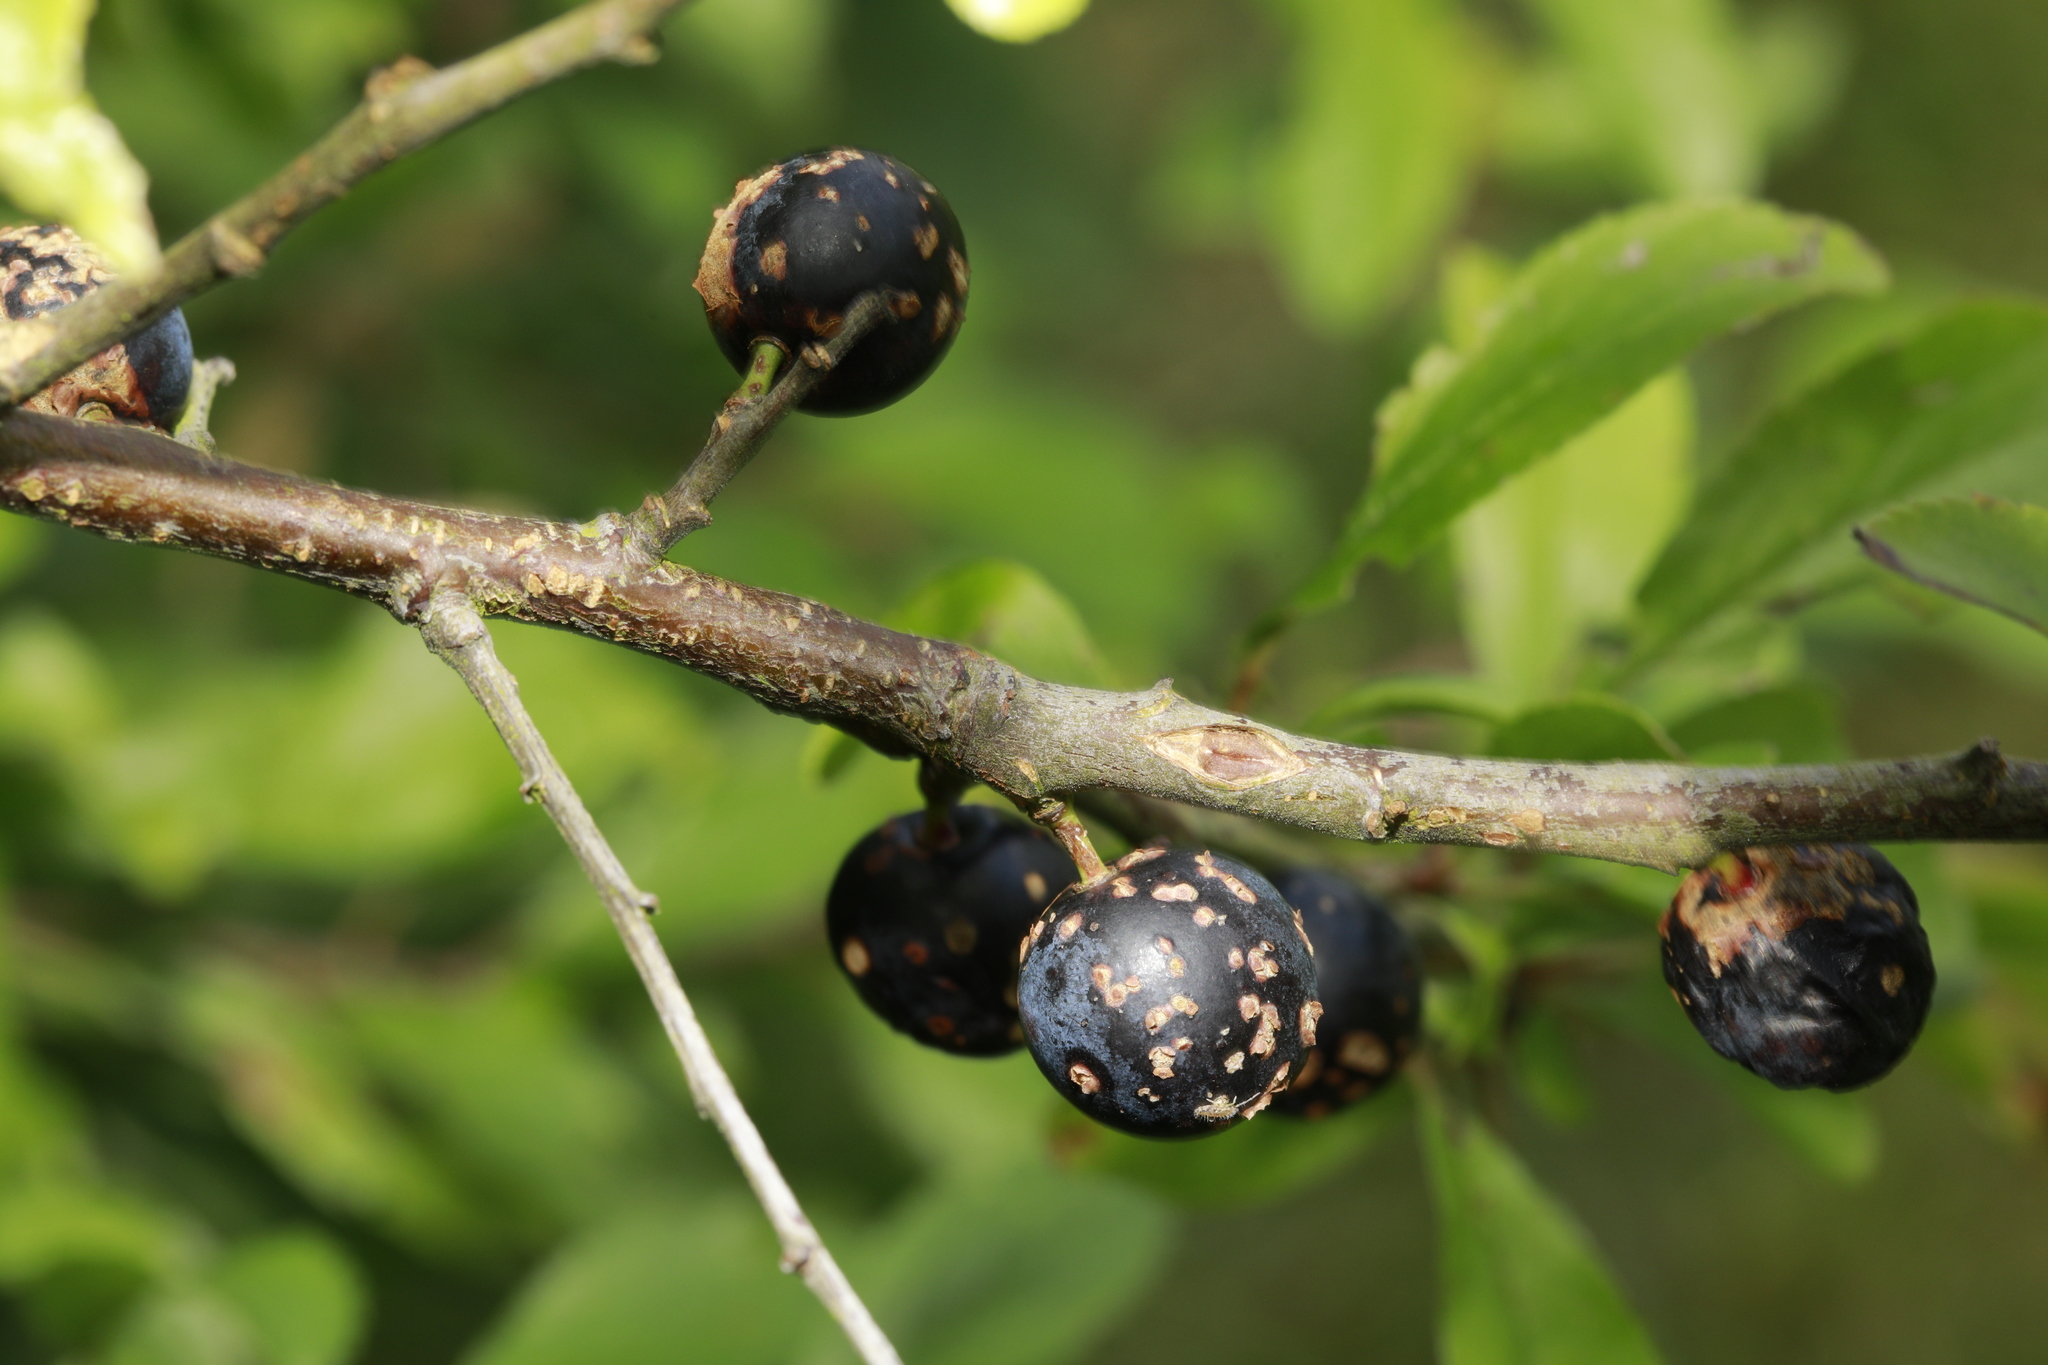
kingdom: Plantae
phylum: Tracheophyta
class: Magnoliopsida
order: Rosales
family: Rosaceae
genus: Prunus
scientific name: Prunus spinosa
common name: Blackthorn
